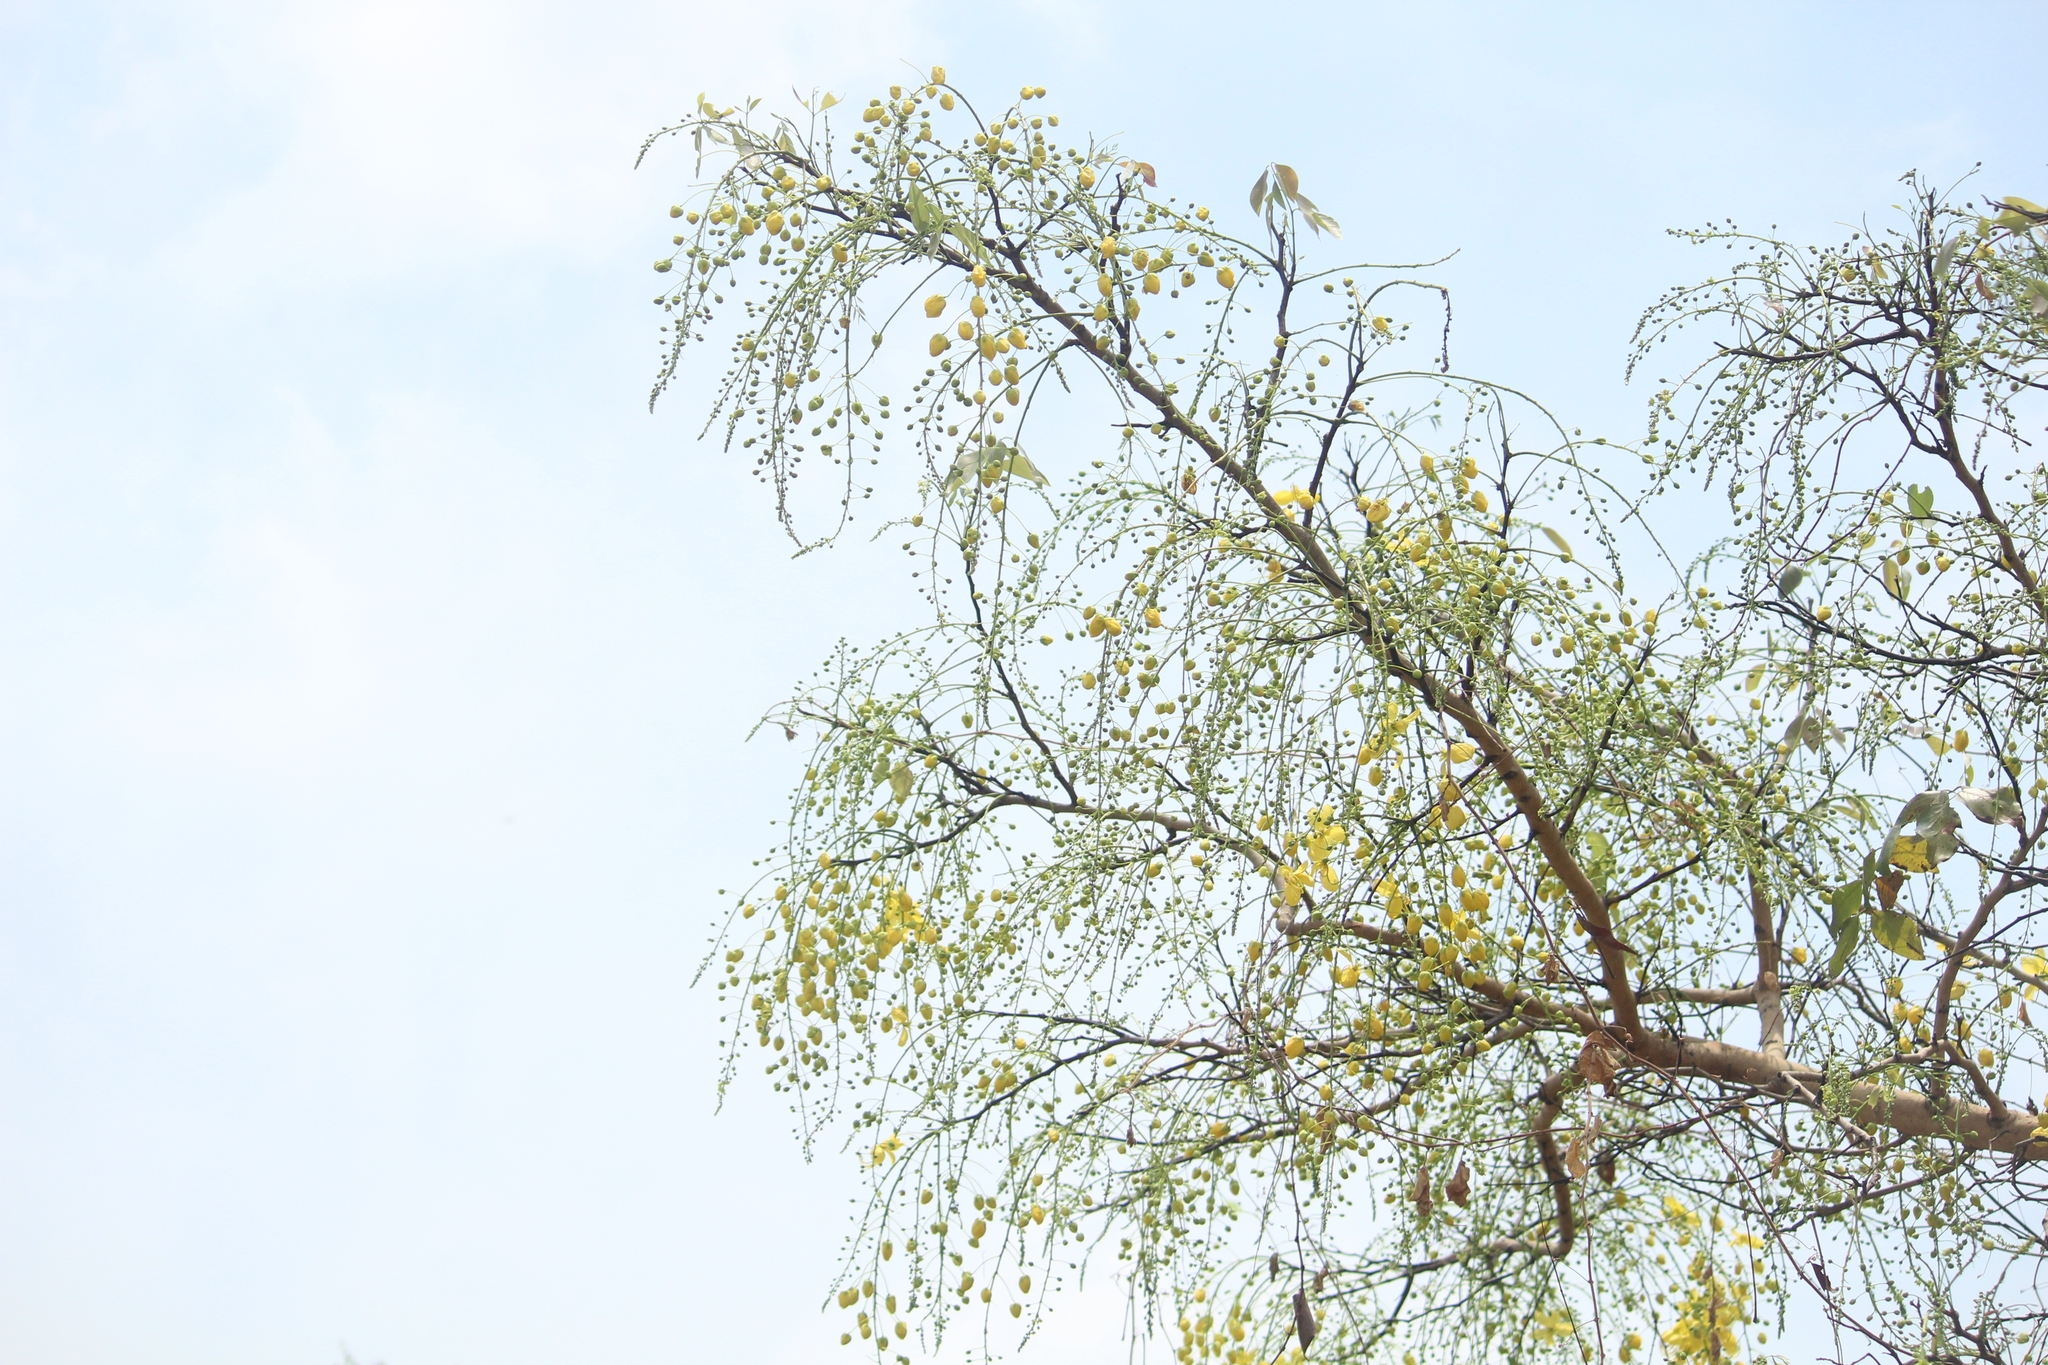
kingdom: Plantae
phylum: Tracheophyta
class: Magnoliopsida
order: Fabales
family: Fabaceae
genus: Cassia
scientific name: Cassia fistula
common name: Golden shower
